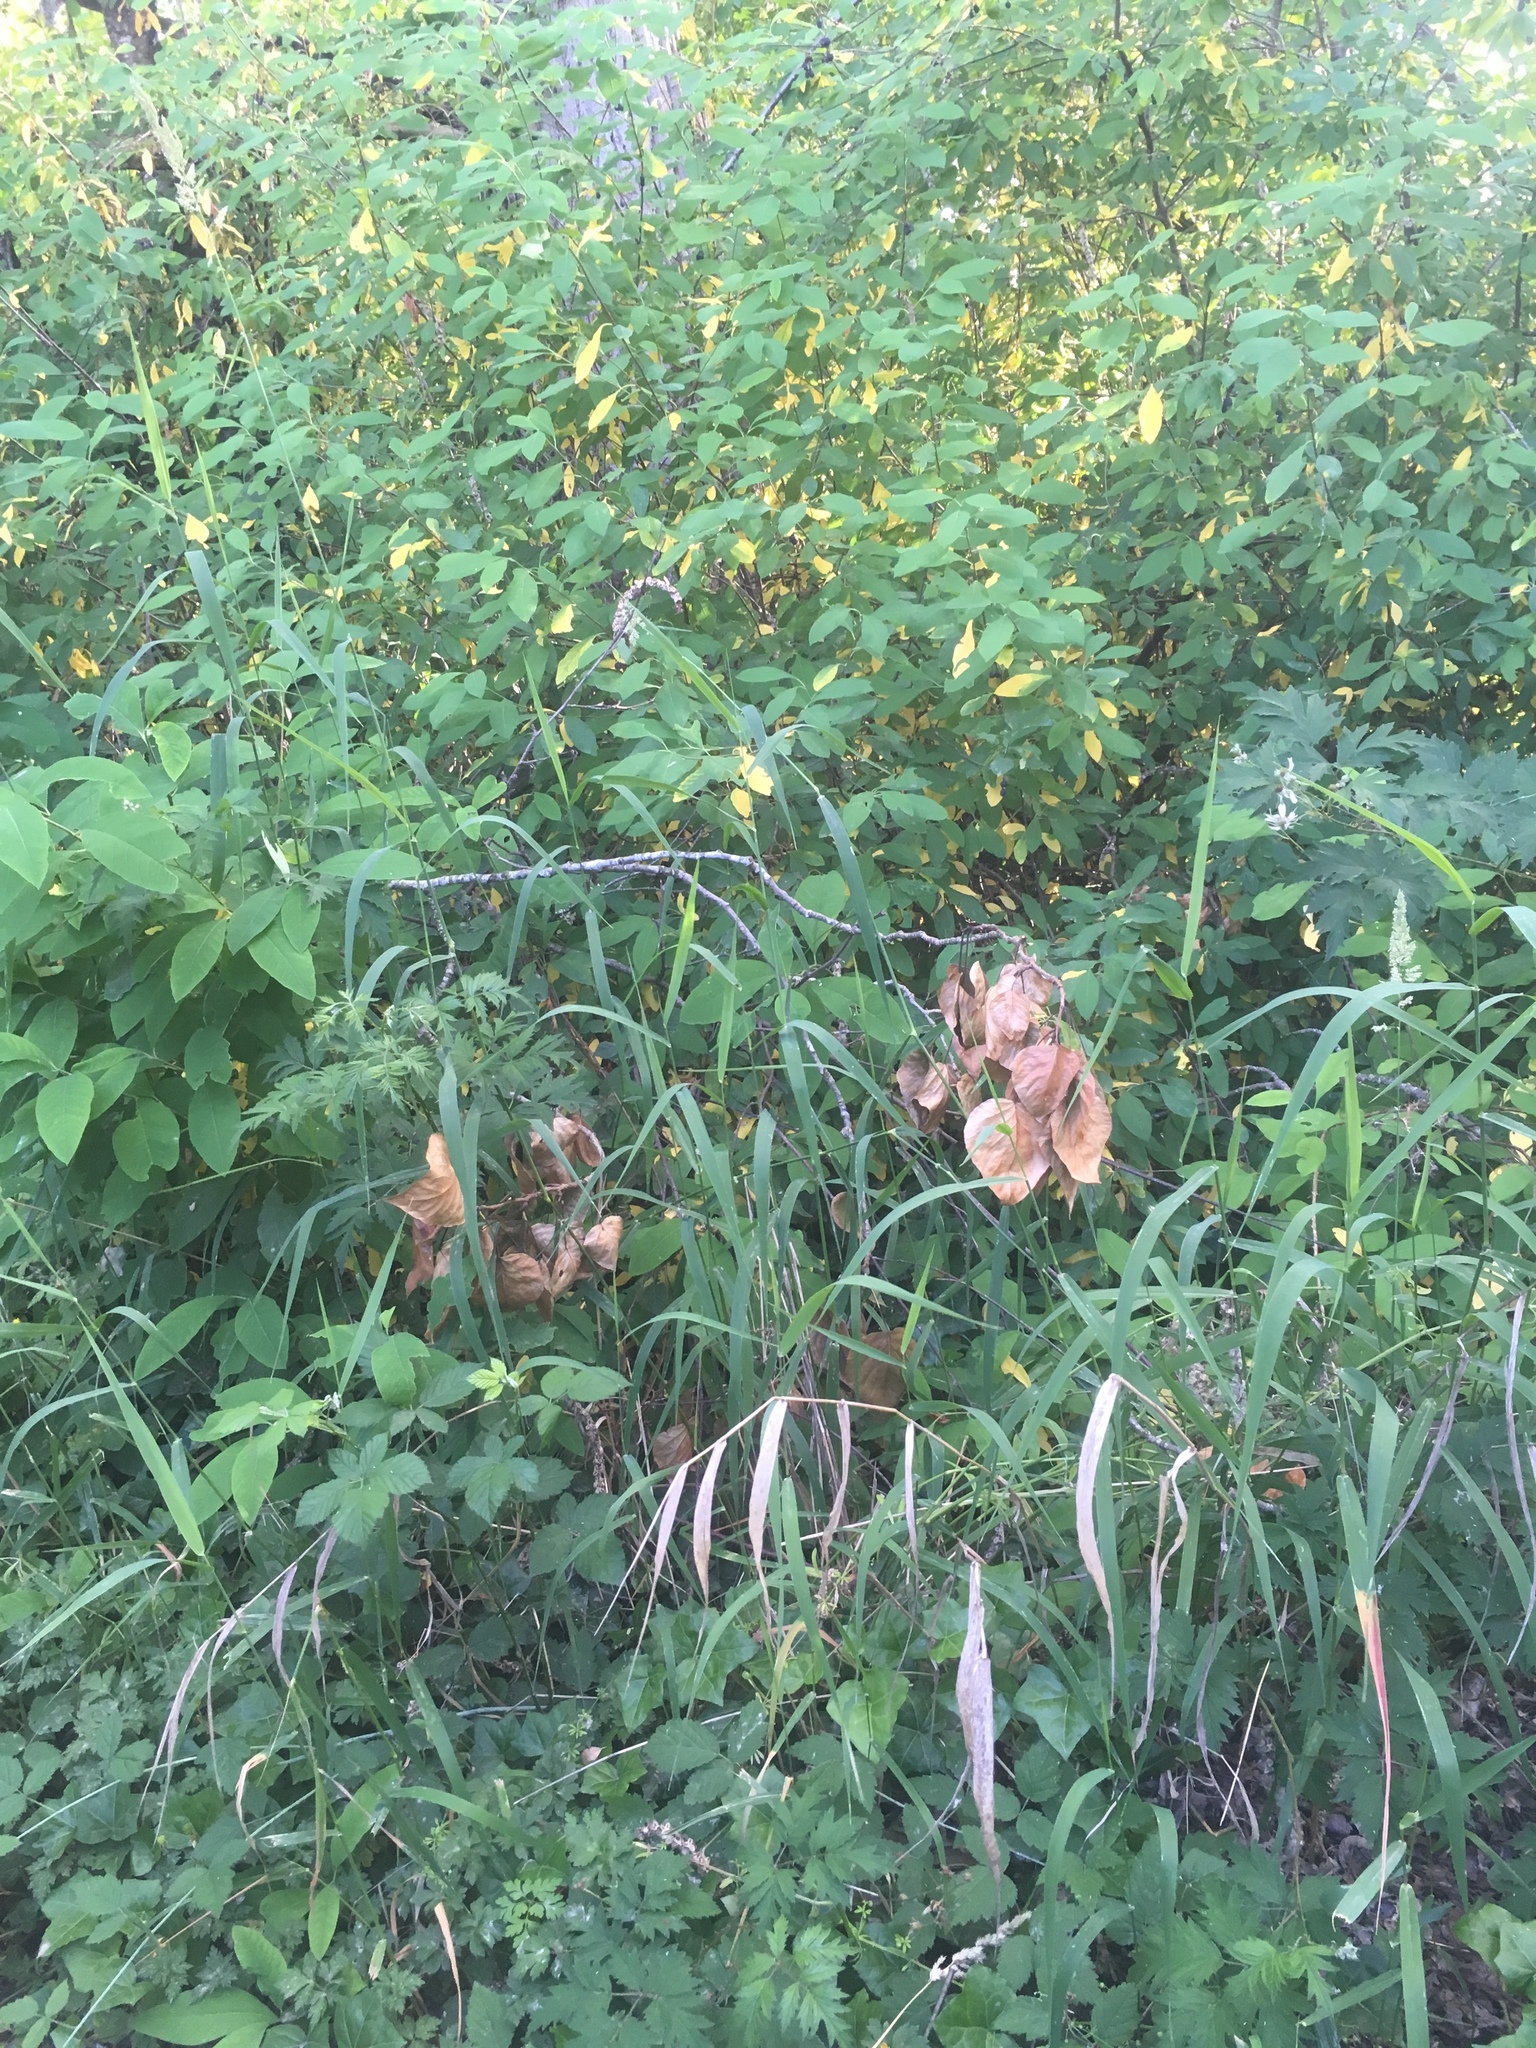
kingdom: Plantae
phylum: Tracheophyta
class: Liliopsida
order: Poales
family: Poaceae
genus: Phalaris
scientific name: Phalaris arundinacea
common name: Reed canary-grass
